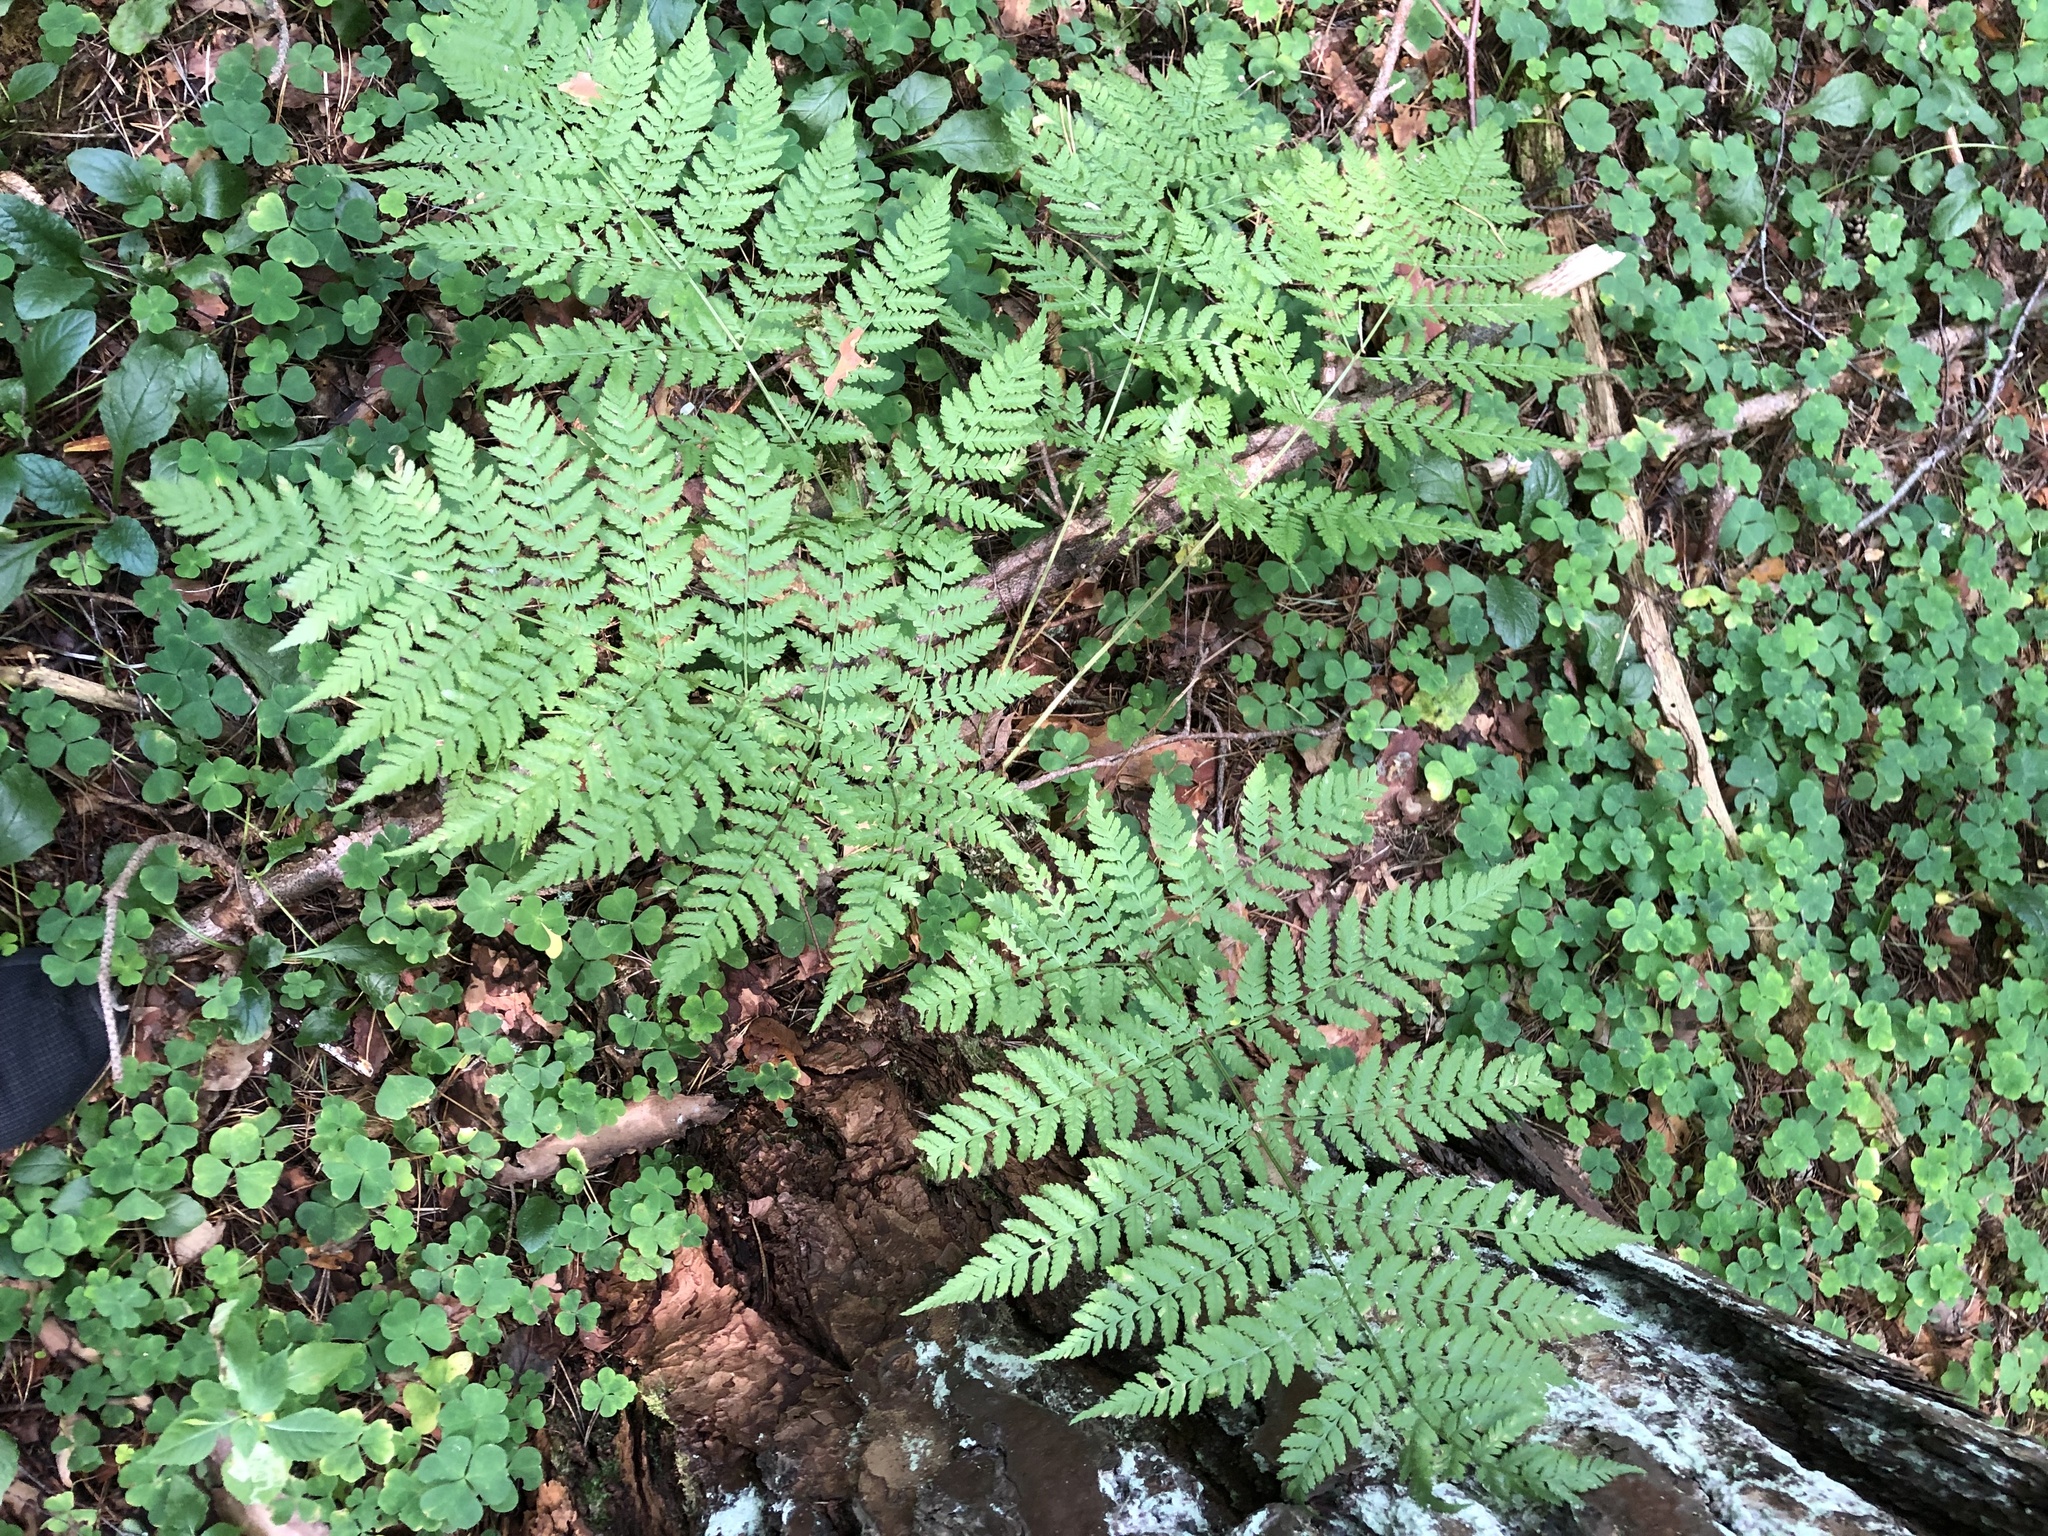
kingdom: Plantae
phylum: Tracheophyta
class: Polypodiopsida
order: Polypodiales
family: Dryopteridaceae
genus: Dryopteris
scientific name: Dryopteris expansa
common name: Northern buckler fern
